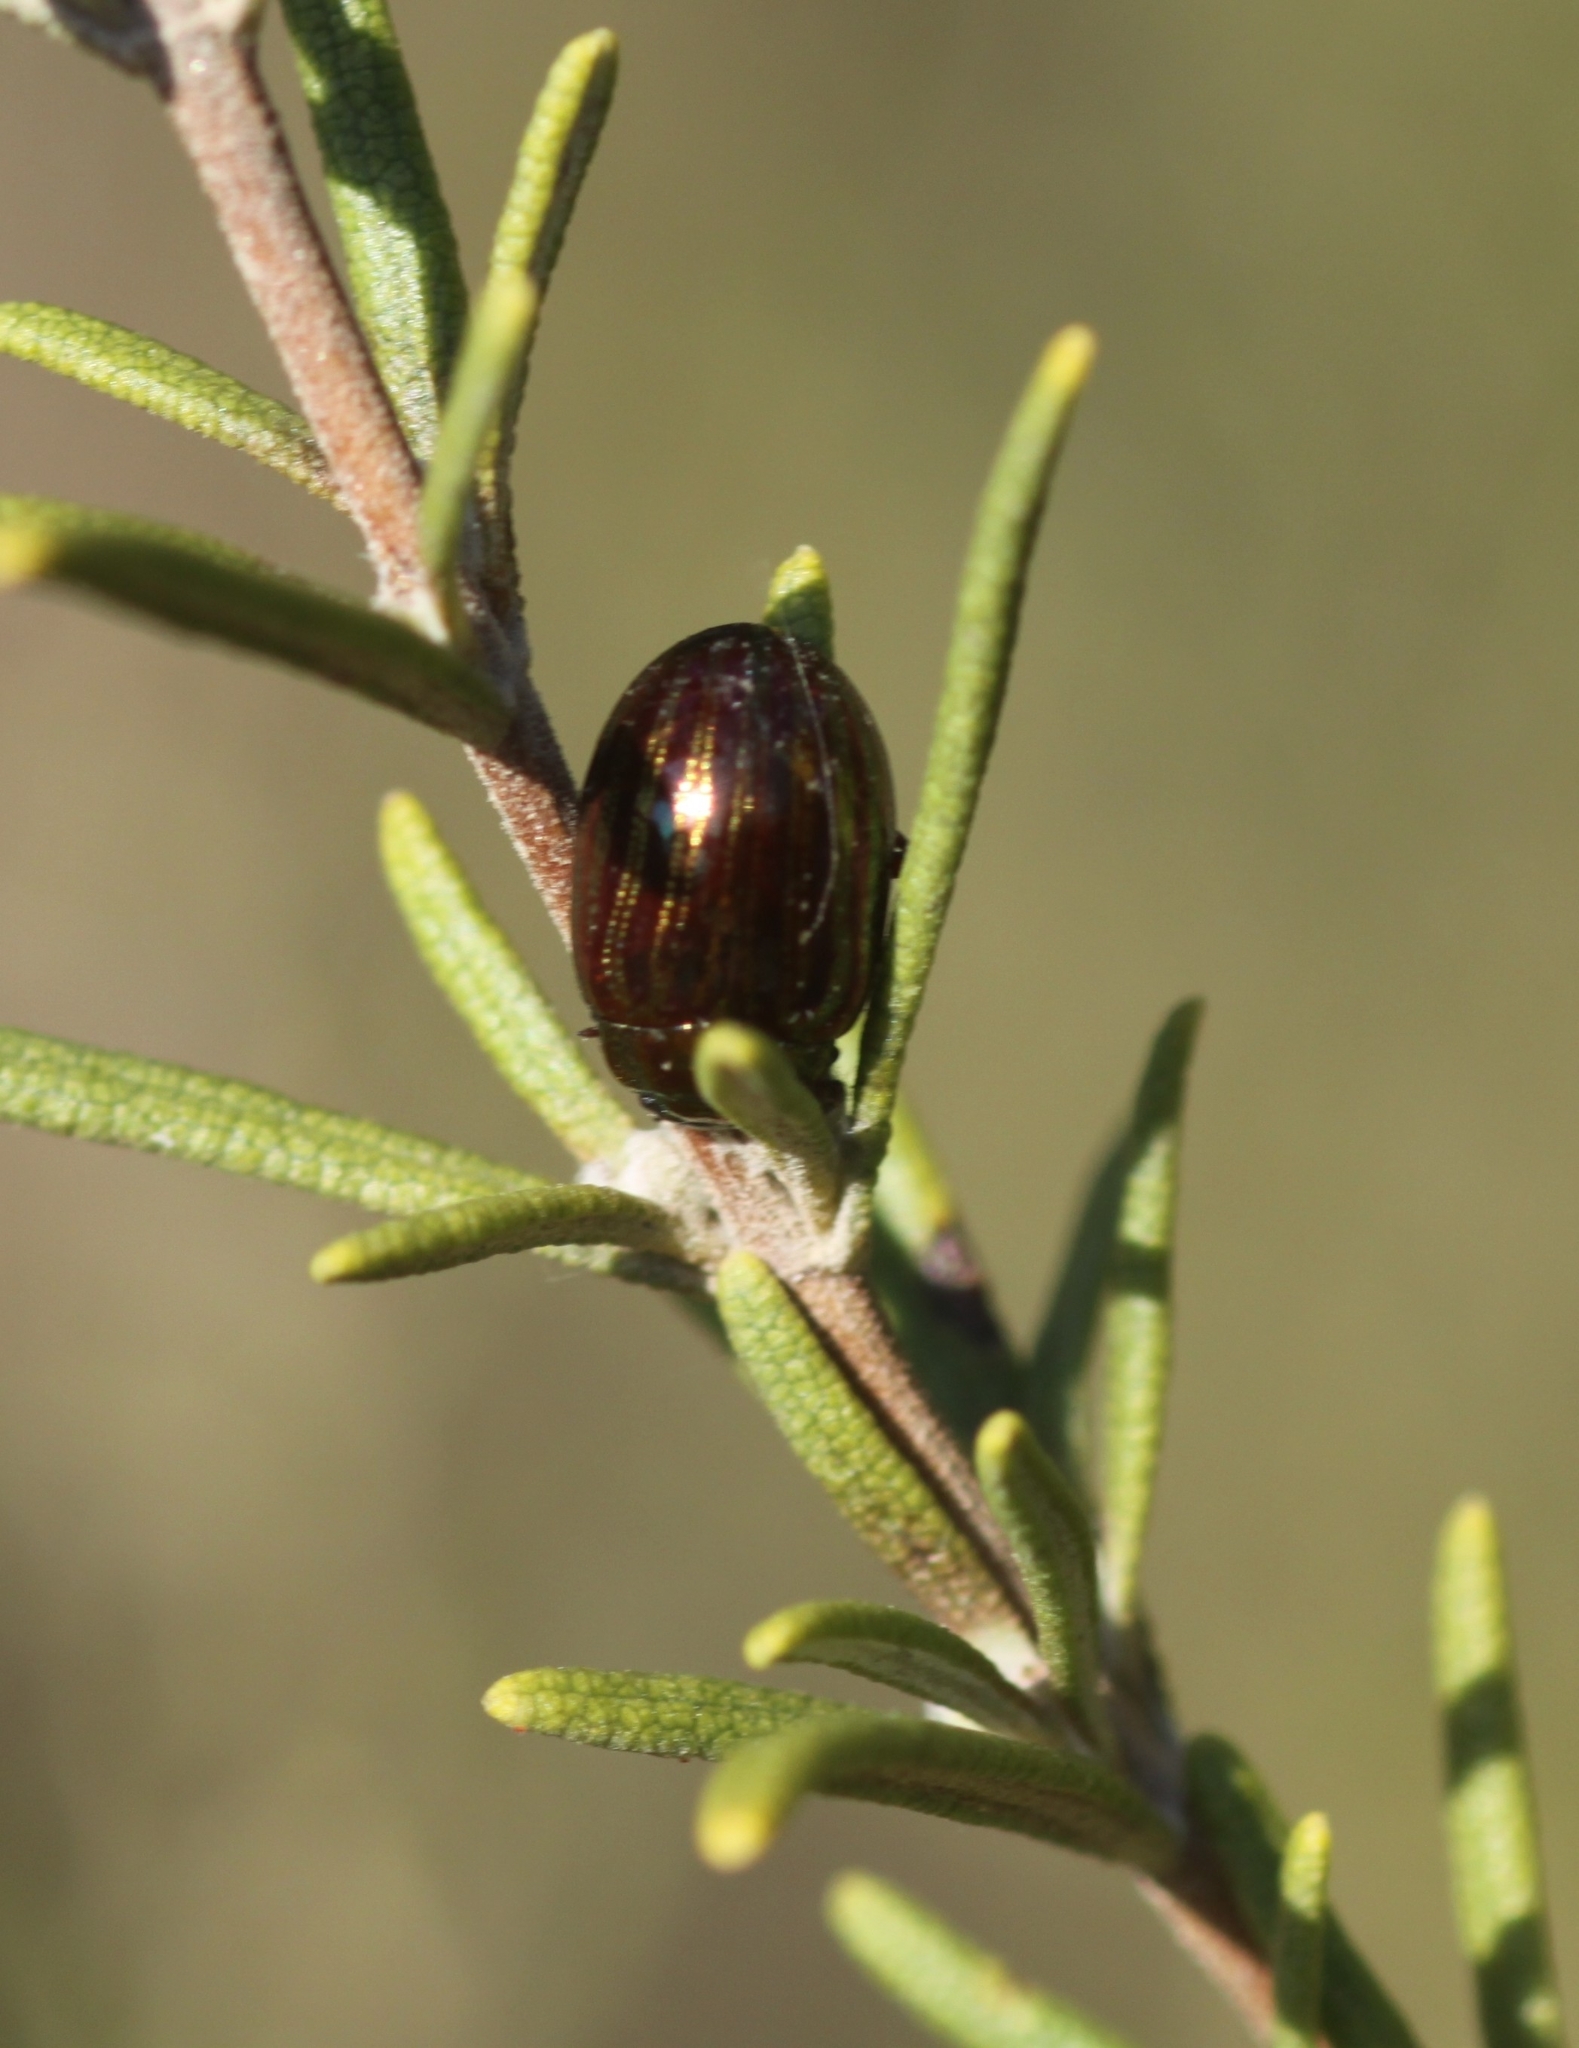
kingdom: Animalia
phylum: Arthropoda
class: Insecta
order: Coleoptera
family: Chrysomelidae
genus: Chrysolina
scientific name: Chrysolina americana
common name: Rosemary beetle
